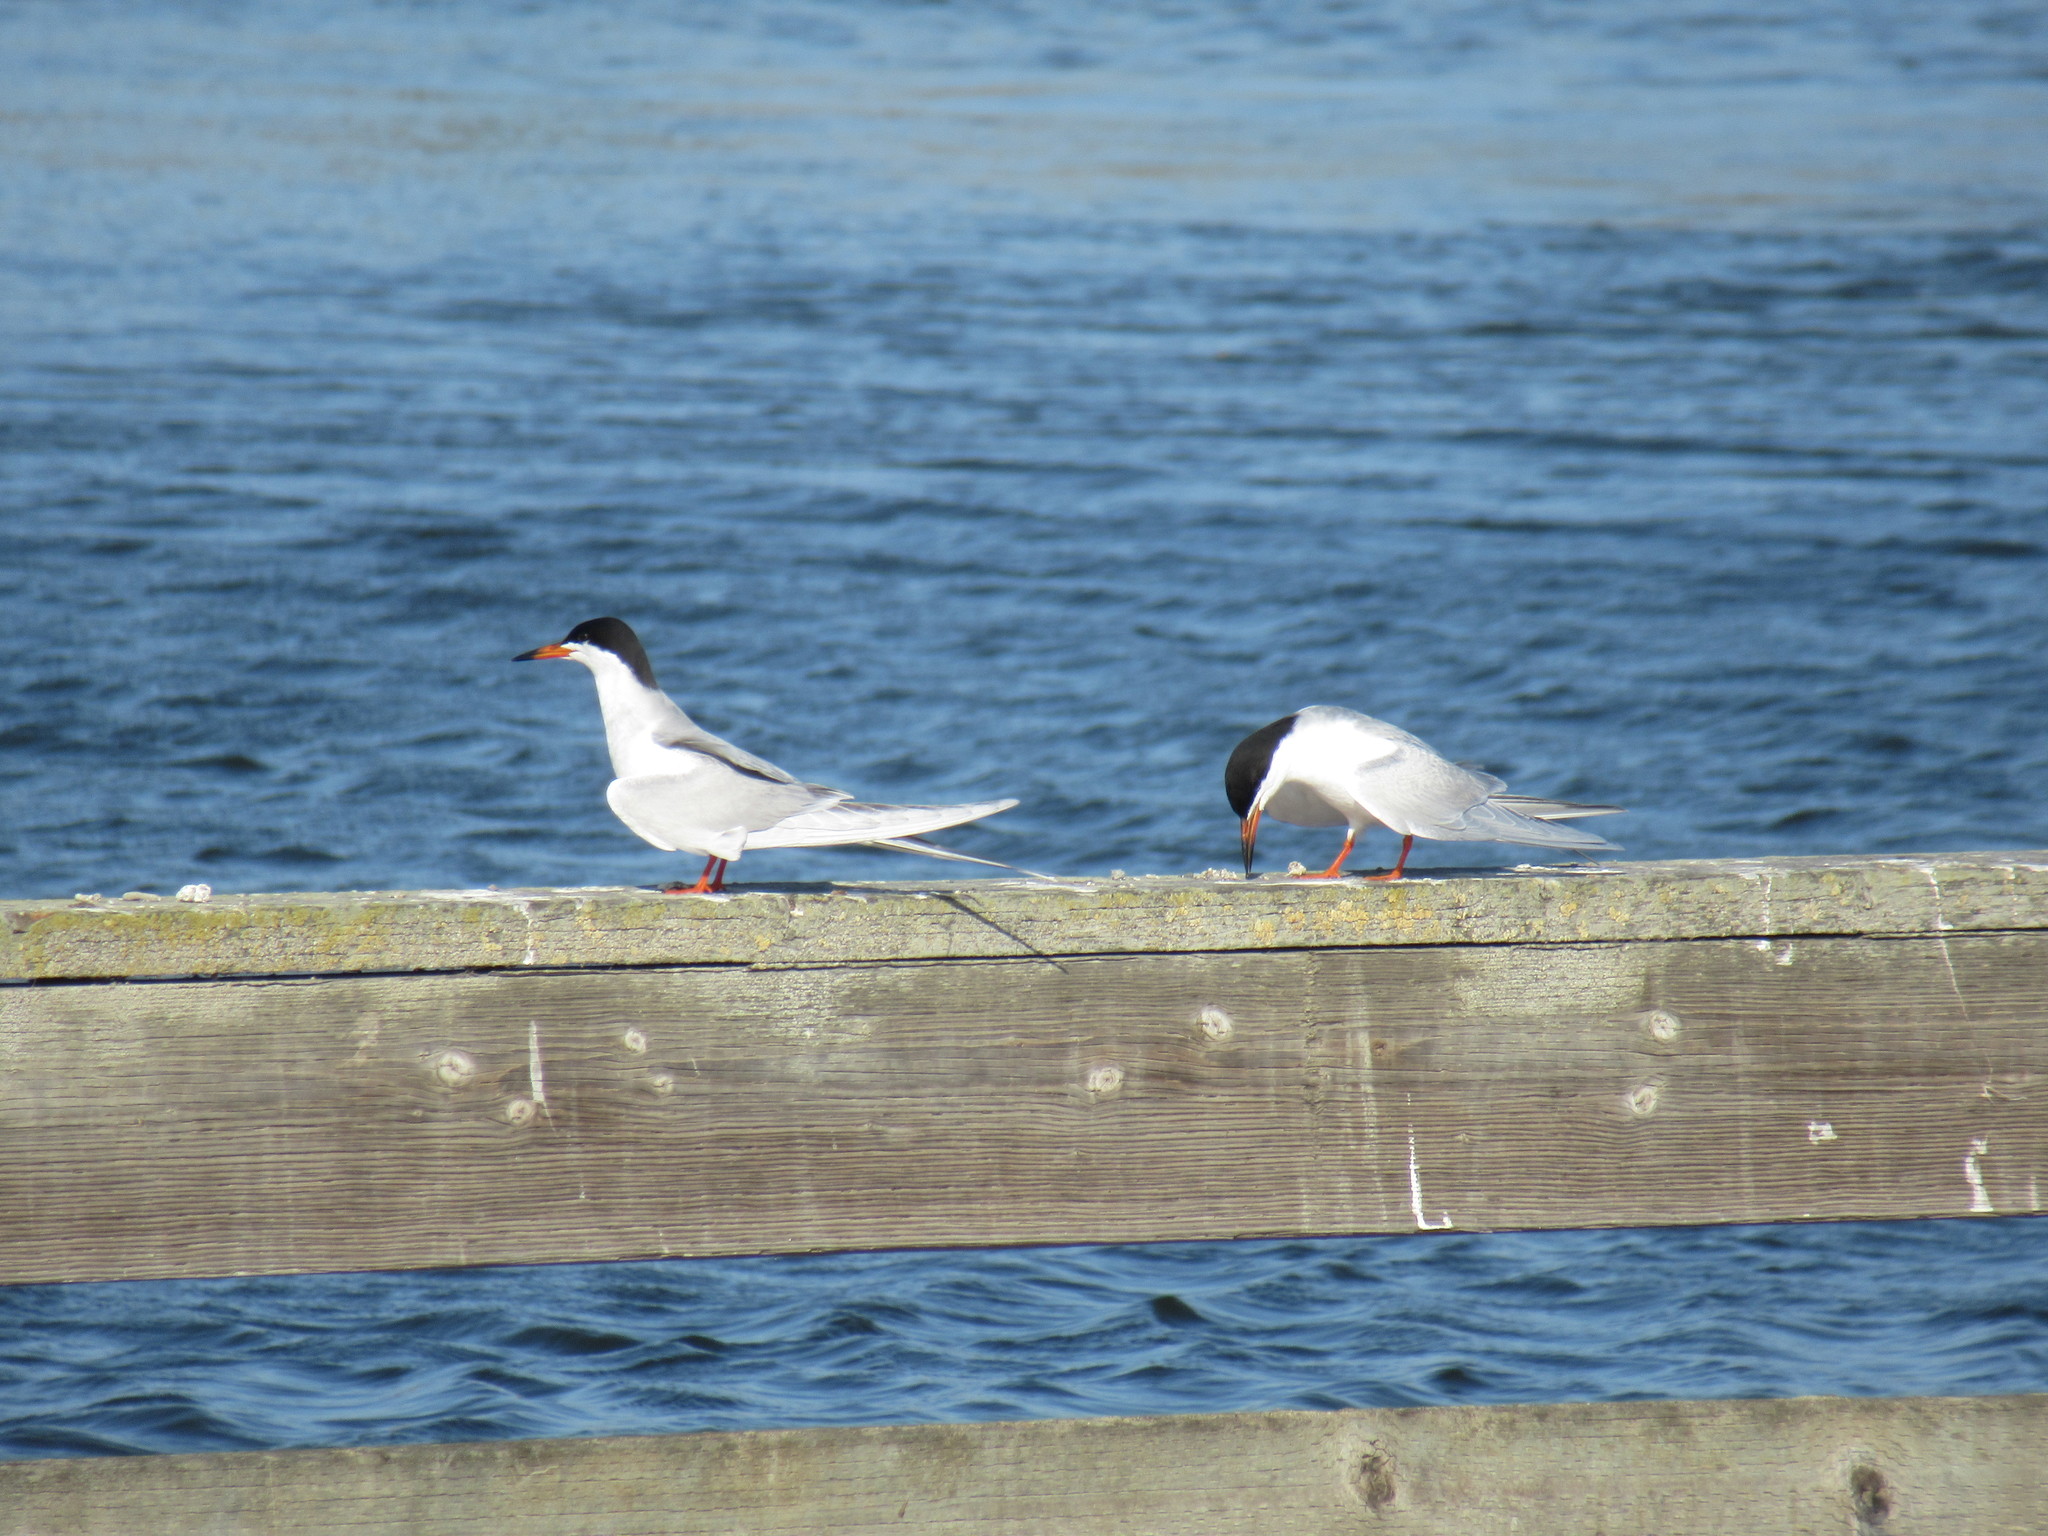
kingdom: Animalia
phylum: Chordata
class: Aves
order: Charadriiformes
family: Laridae
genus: Sterna
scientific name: Sterna forsteri
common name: Forster's tern
